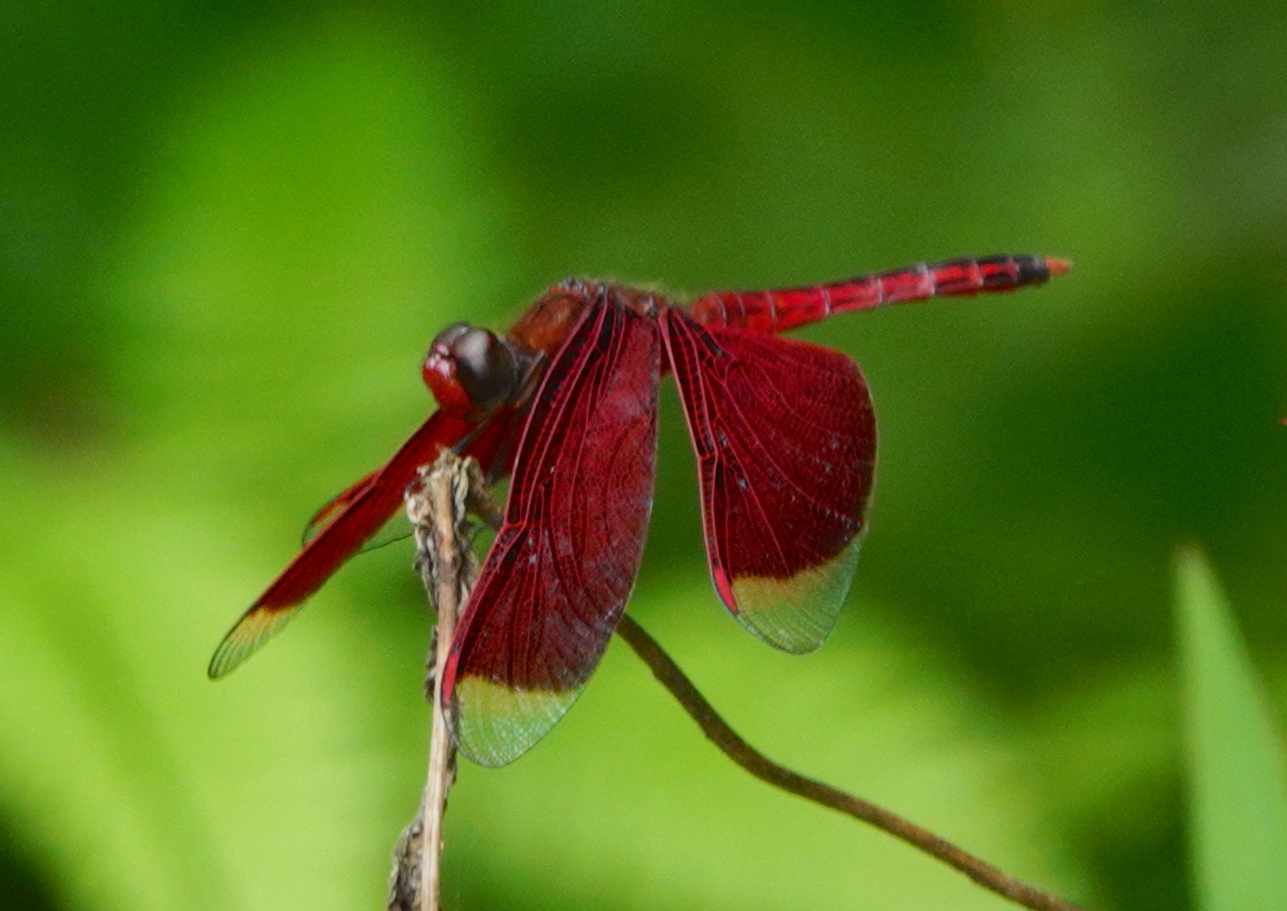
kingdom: Animalia
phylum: Arthropoda
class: Insecta
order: Odonata
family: Libellulidae
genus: Neurothemis
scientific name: Neurothemis ramburii
